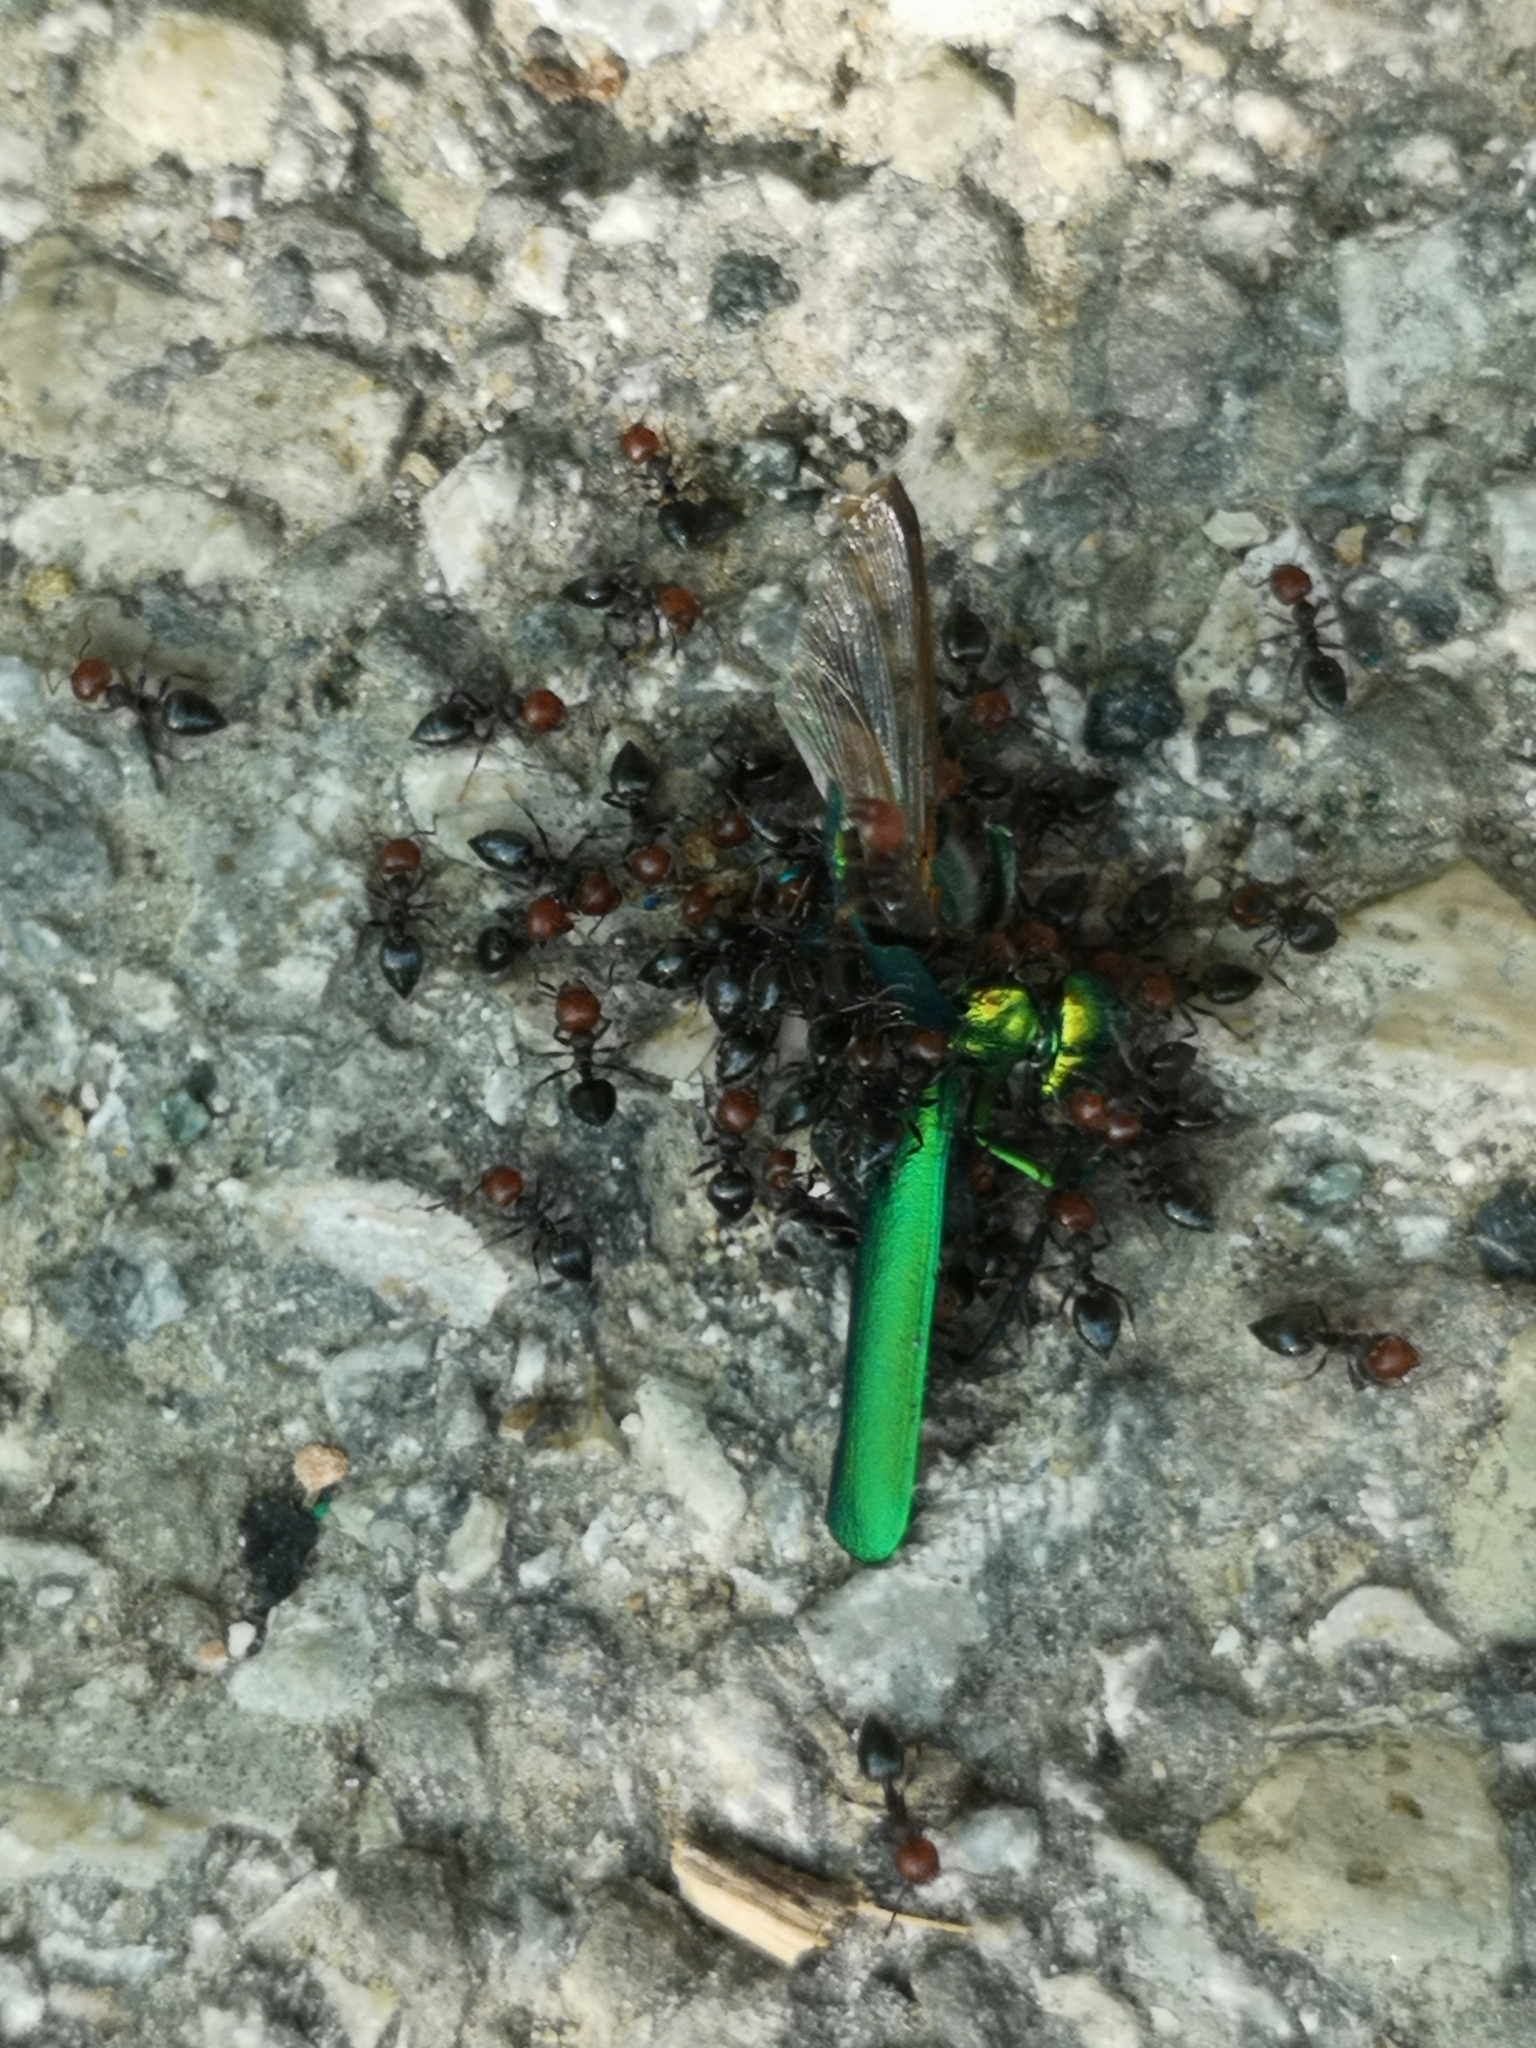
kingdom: Animalia
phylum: Arthropoda
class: Insecta
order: Hymenoptera
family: Formicidae
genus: Crematogaster
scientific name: Crematogaster scutellaris
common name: Fourmi du liège
